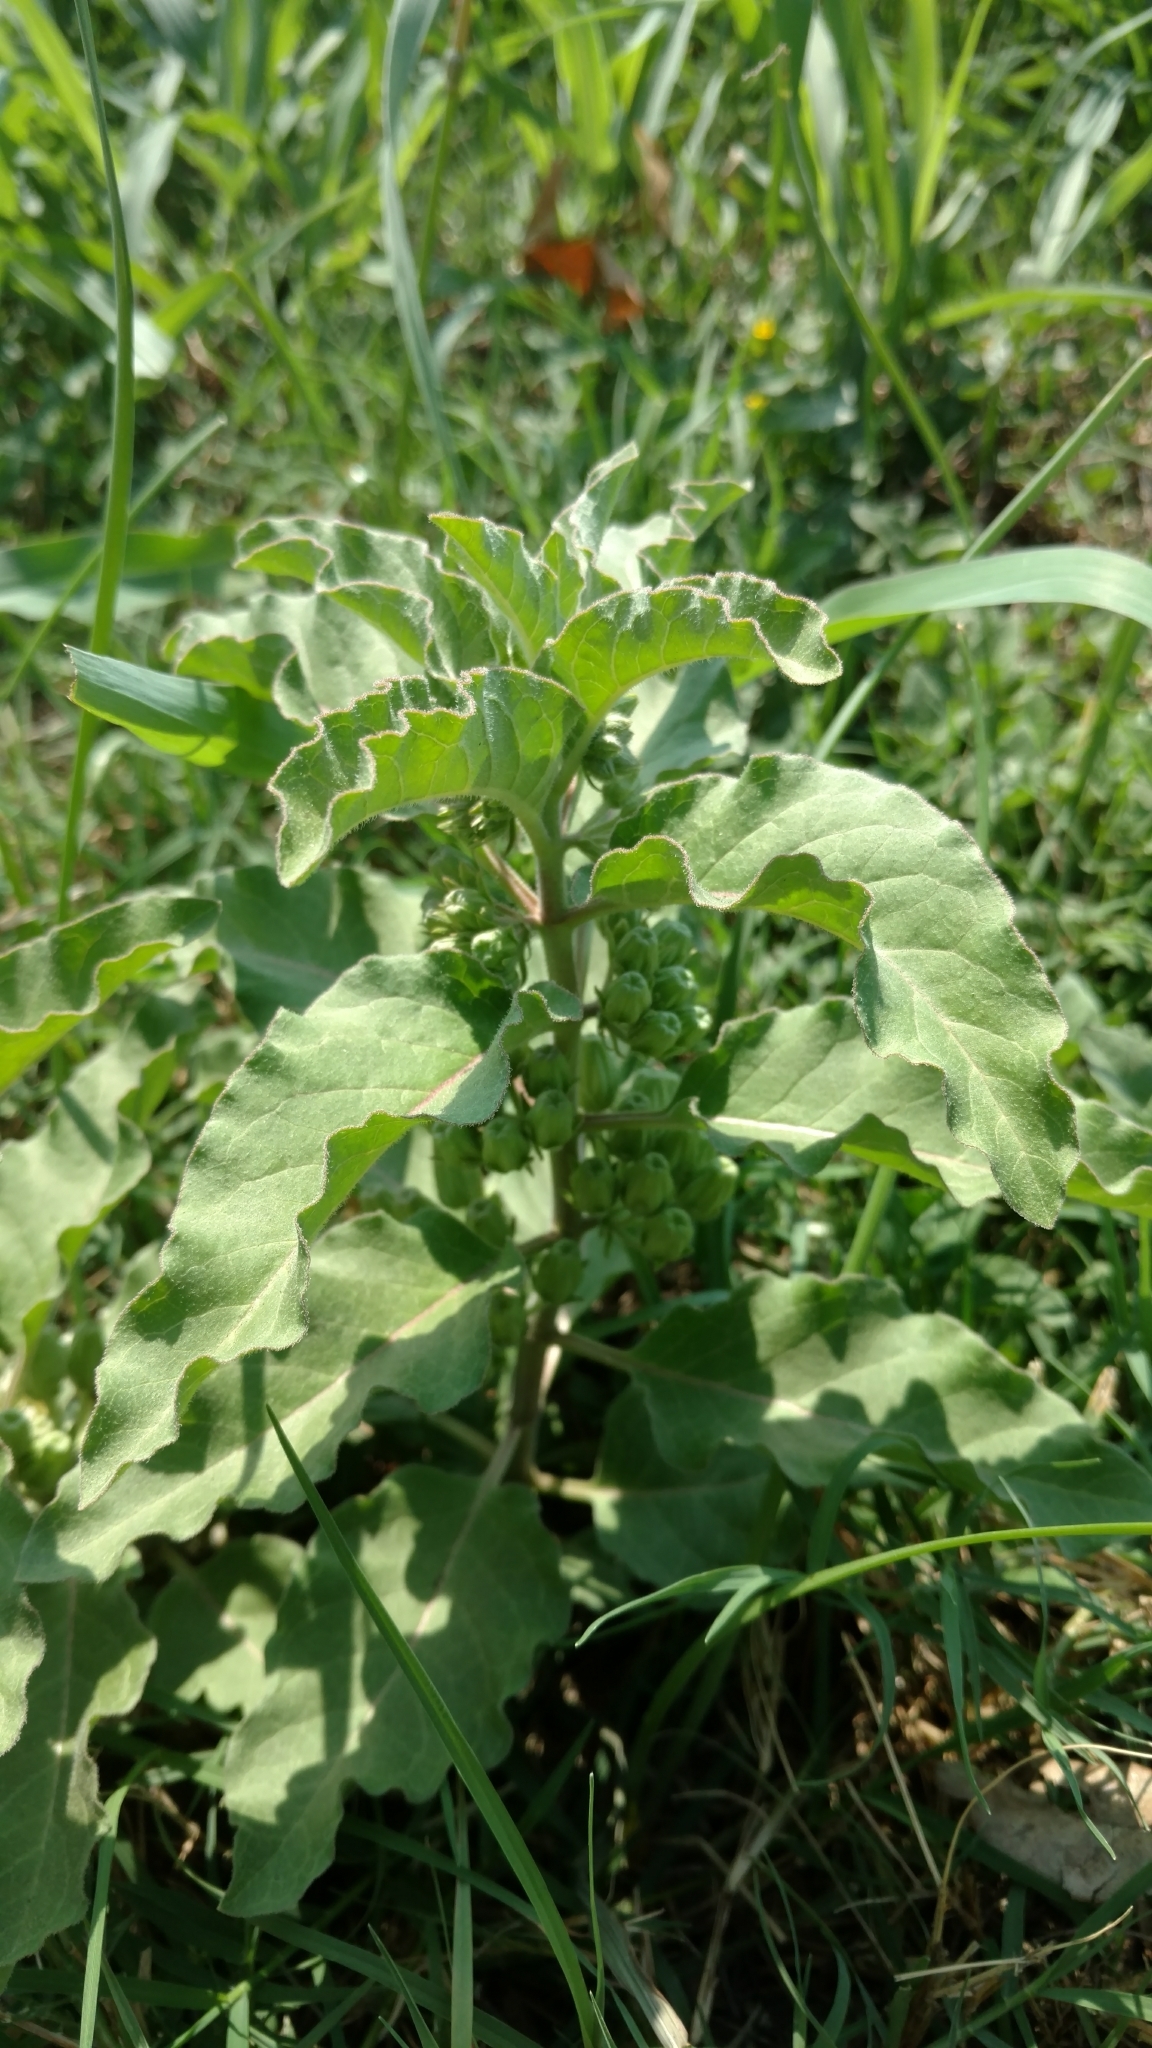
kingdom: Plantae
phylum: Tracheophyta
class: Magnoliopsida
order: Gentianales
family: Apocynaceae
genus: Asclepias
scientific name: Asclepias oenotheroides
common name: Zizotes milkweed
